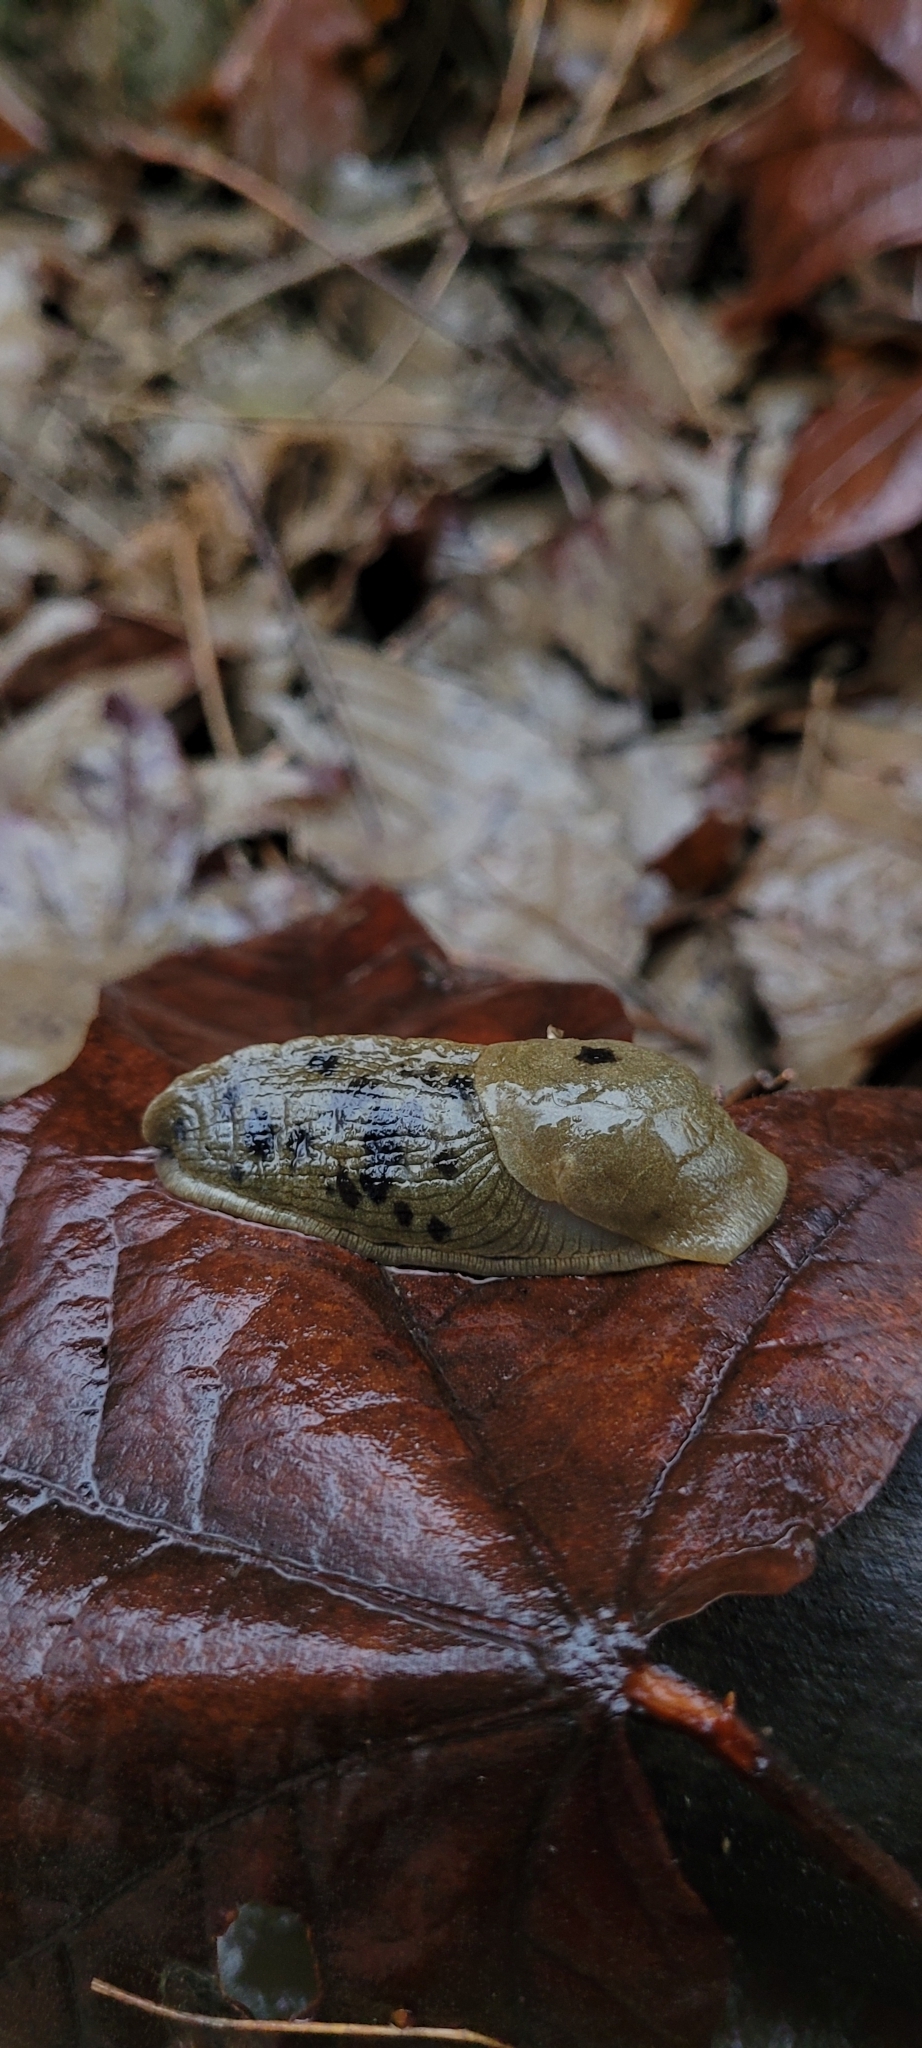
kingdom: Animalia
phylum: Mollusca
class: Gastropoda
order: Stylommatophora
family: Ariolimacidae
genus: Ariolimax
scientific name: Ariolimax columbianus
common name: Pacific banana slug
